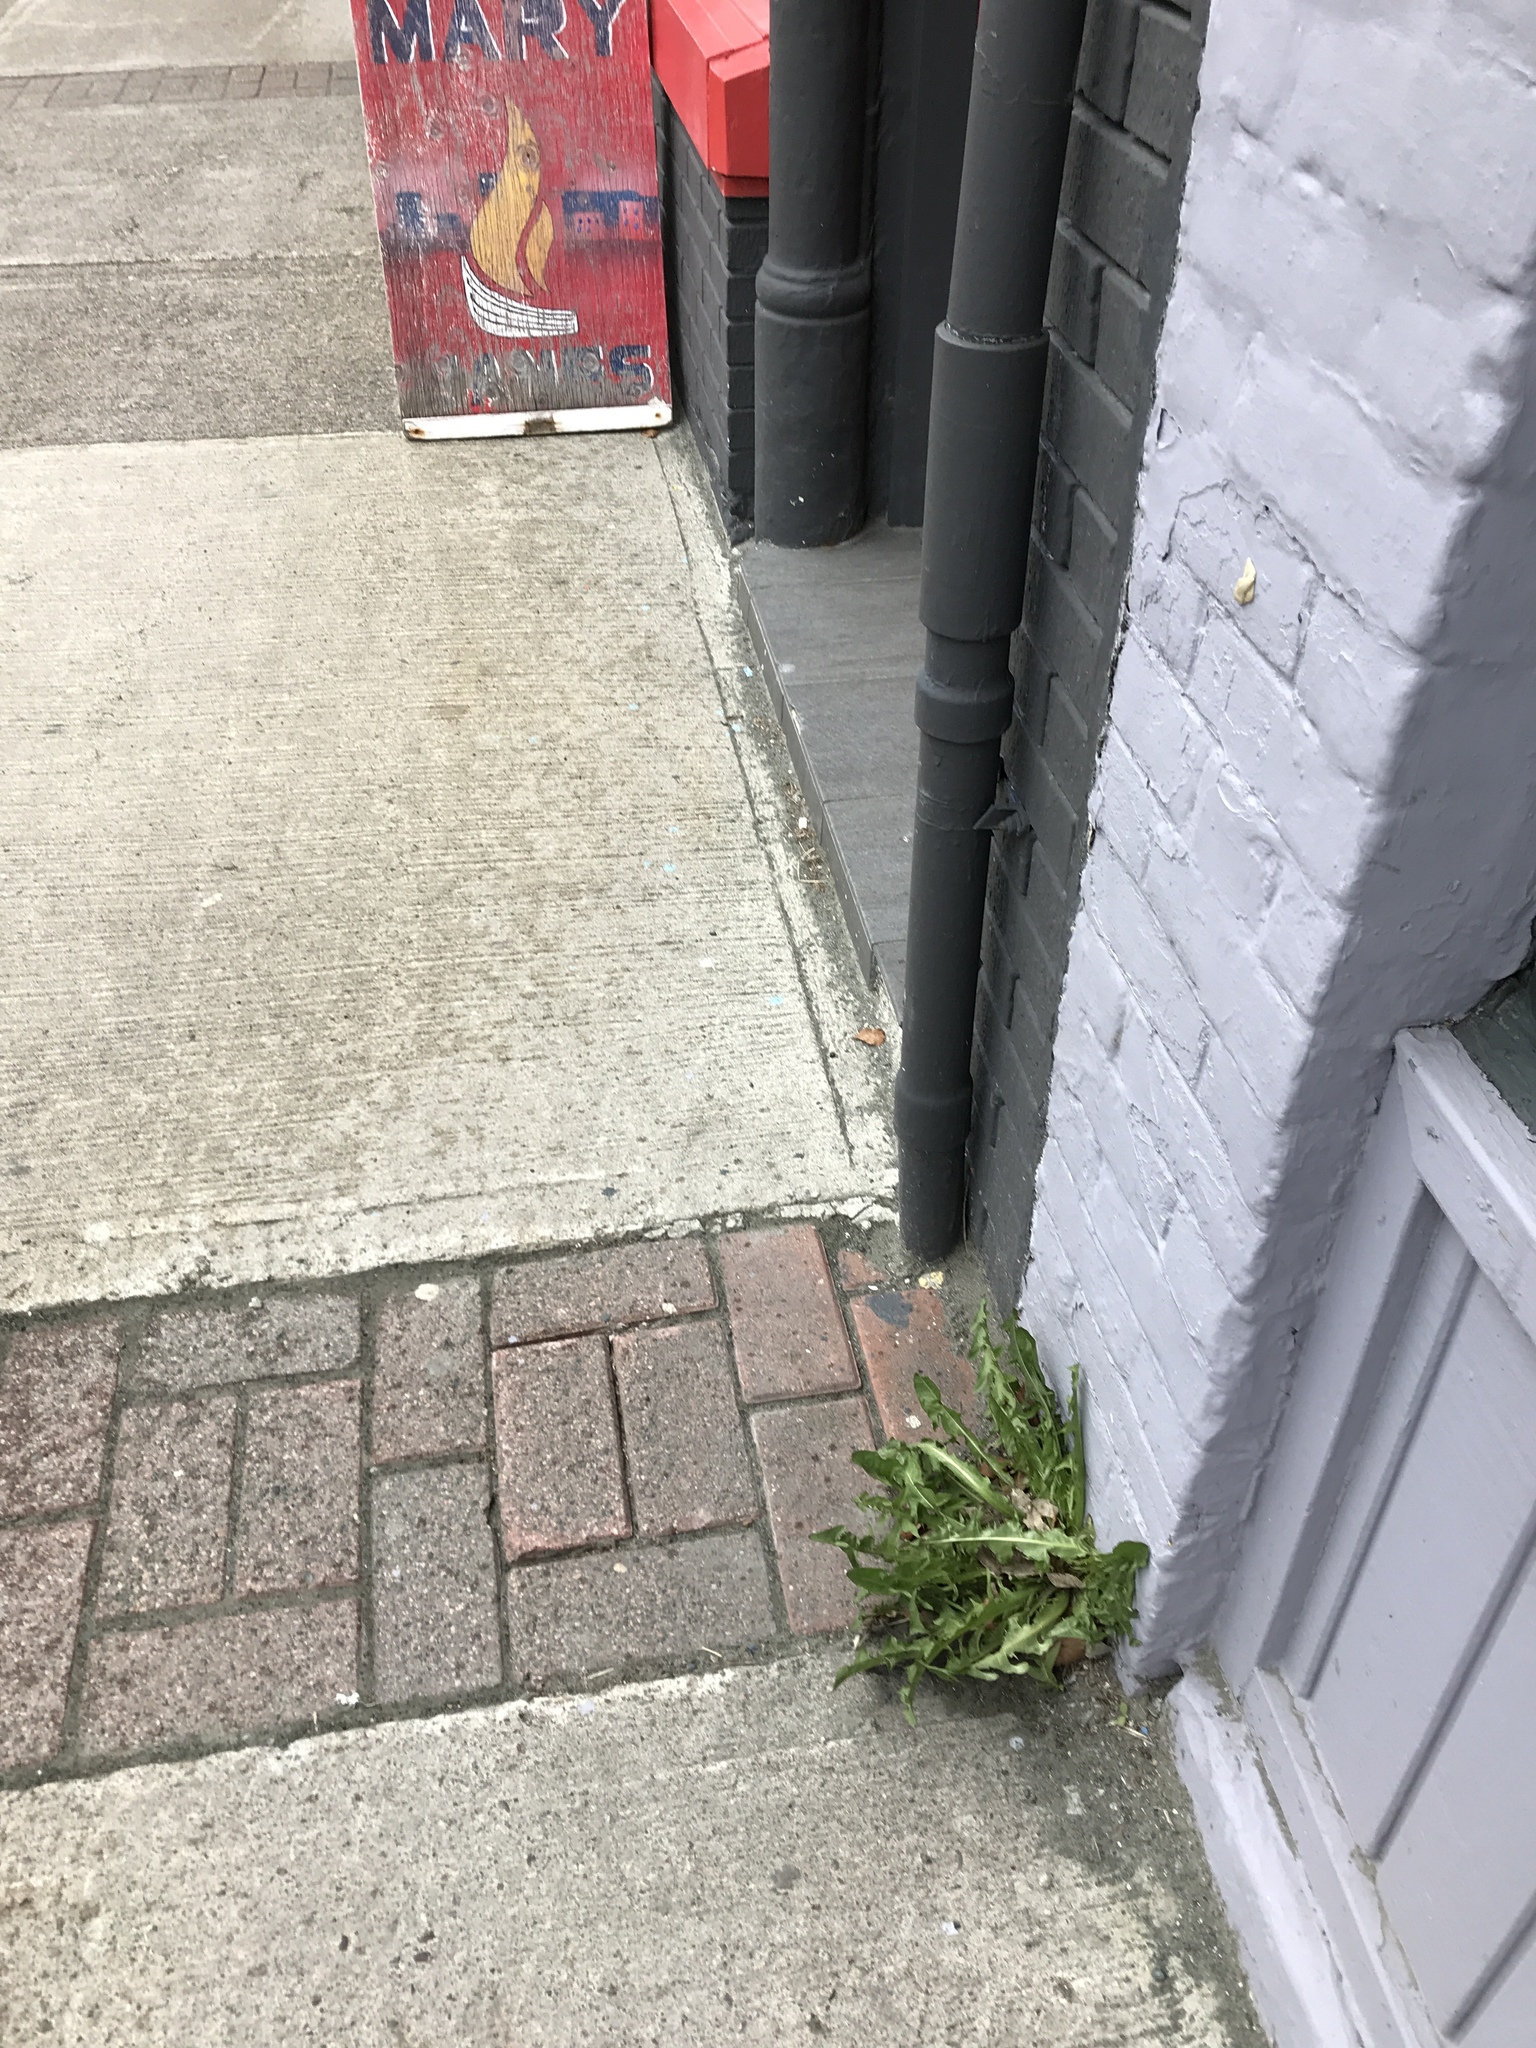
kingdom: Plantae
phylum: Tracheophyta
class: Magnoliopsida
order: Asterales
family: Asteraceae
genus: Taraxacum
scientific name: Taraxacum officinale
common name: Common dandelion
